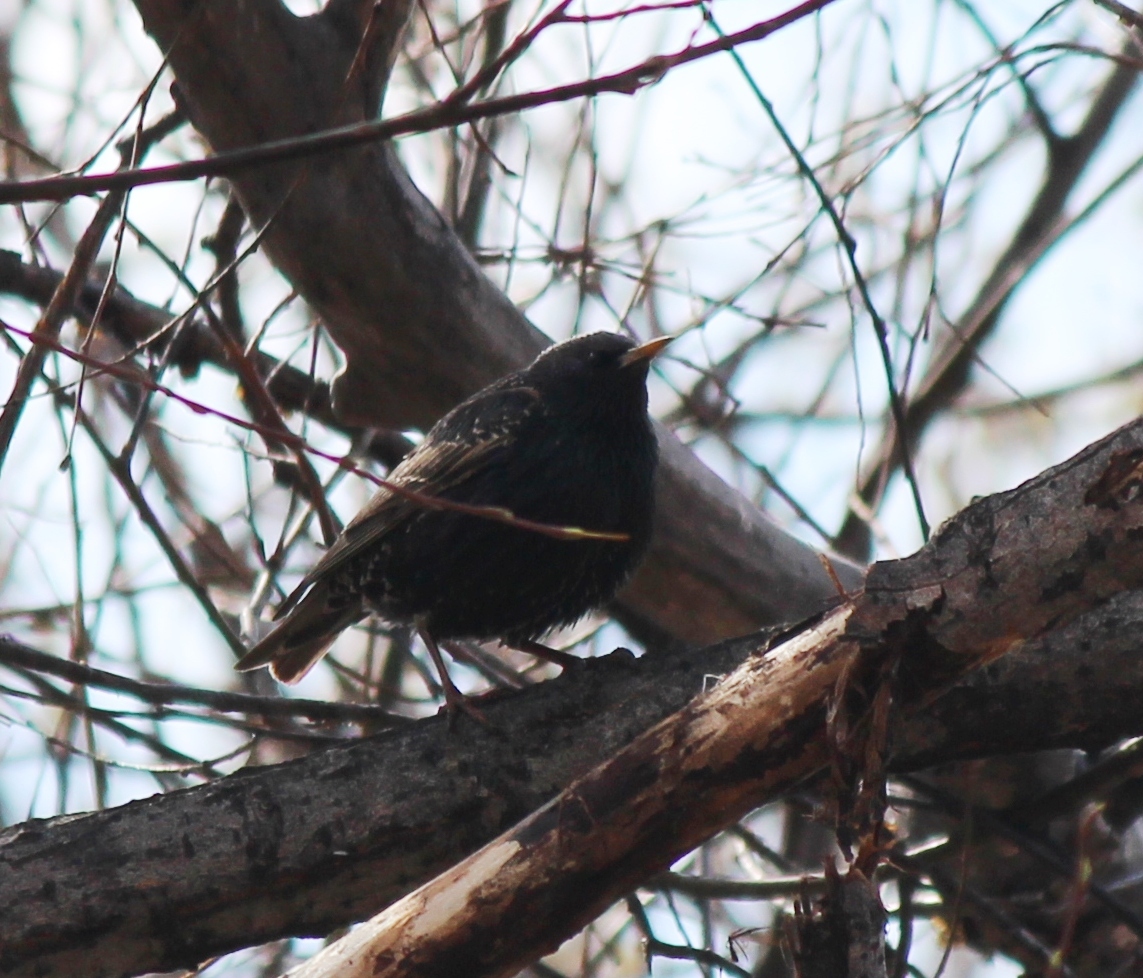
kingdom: Animalia
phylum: Chordata
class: Aves
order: Passeriformes
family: Sturnidae
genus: Sturnus
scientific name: Sturnus vulgaris
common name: Common starling
